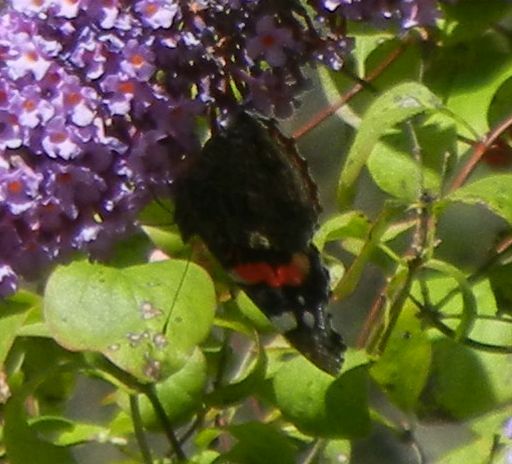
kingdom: Animalia
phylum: Arthropoda
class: Insecta
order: Lepidoptera
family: Nymphalidae
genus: Vanessa
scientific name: Vanessa atalanta
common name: Red admiral
